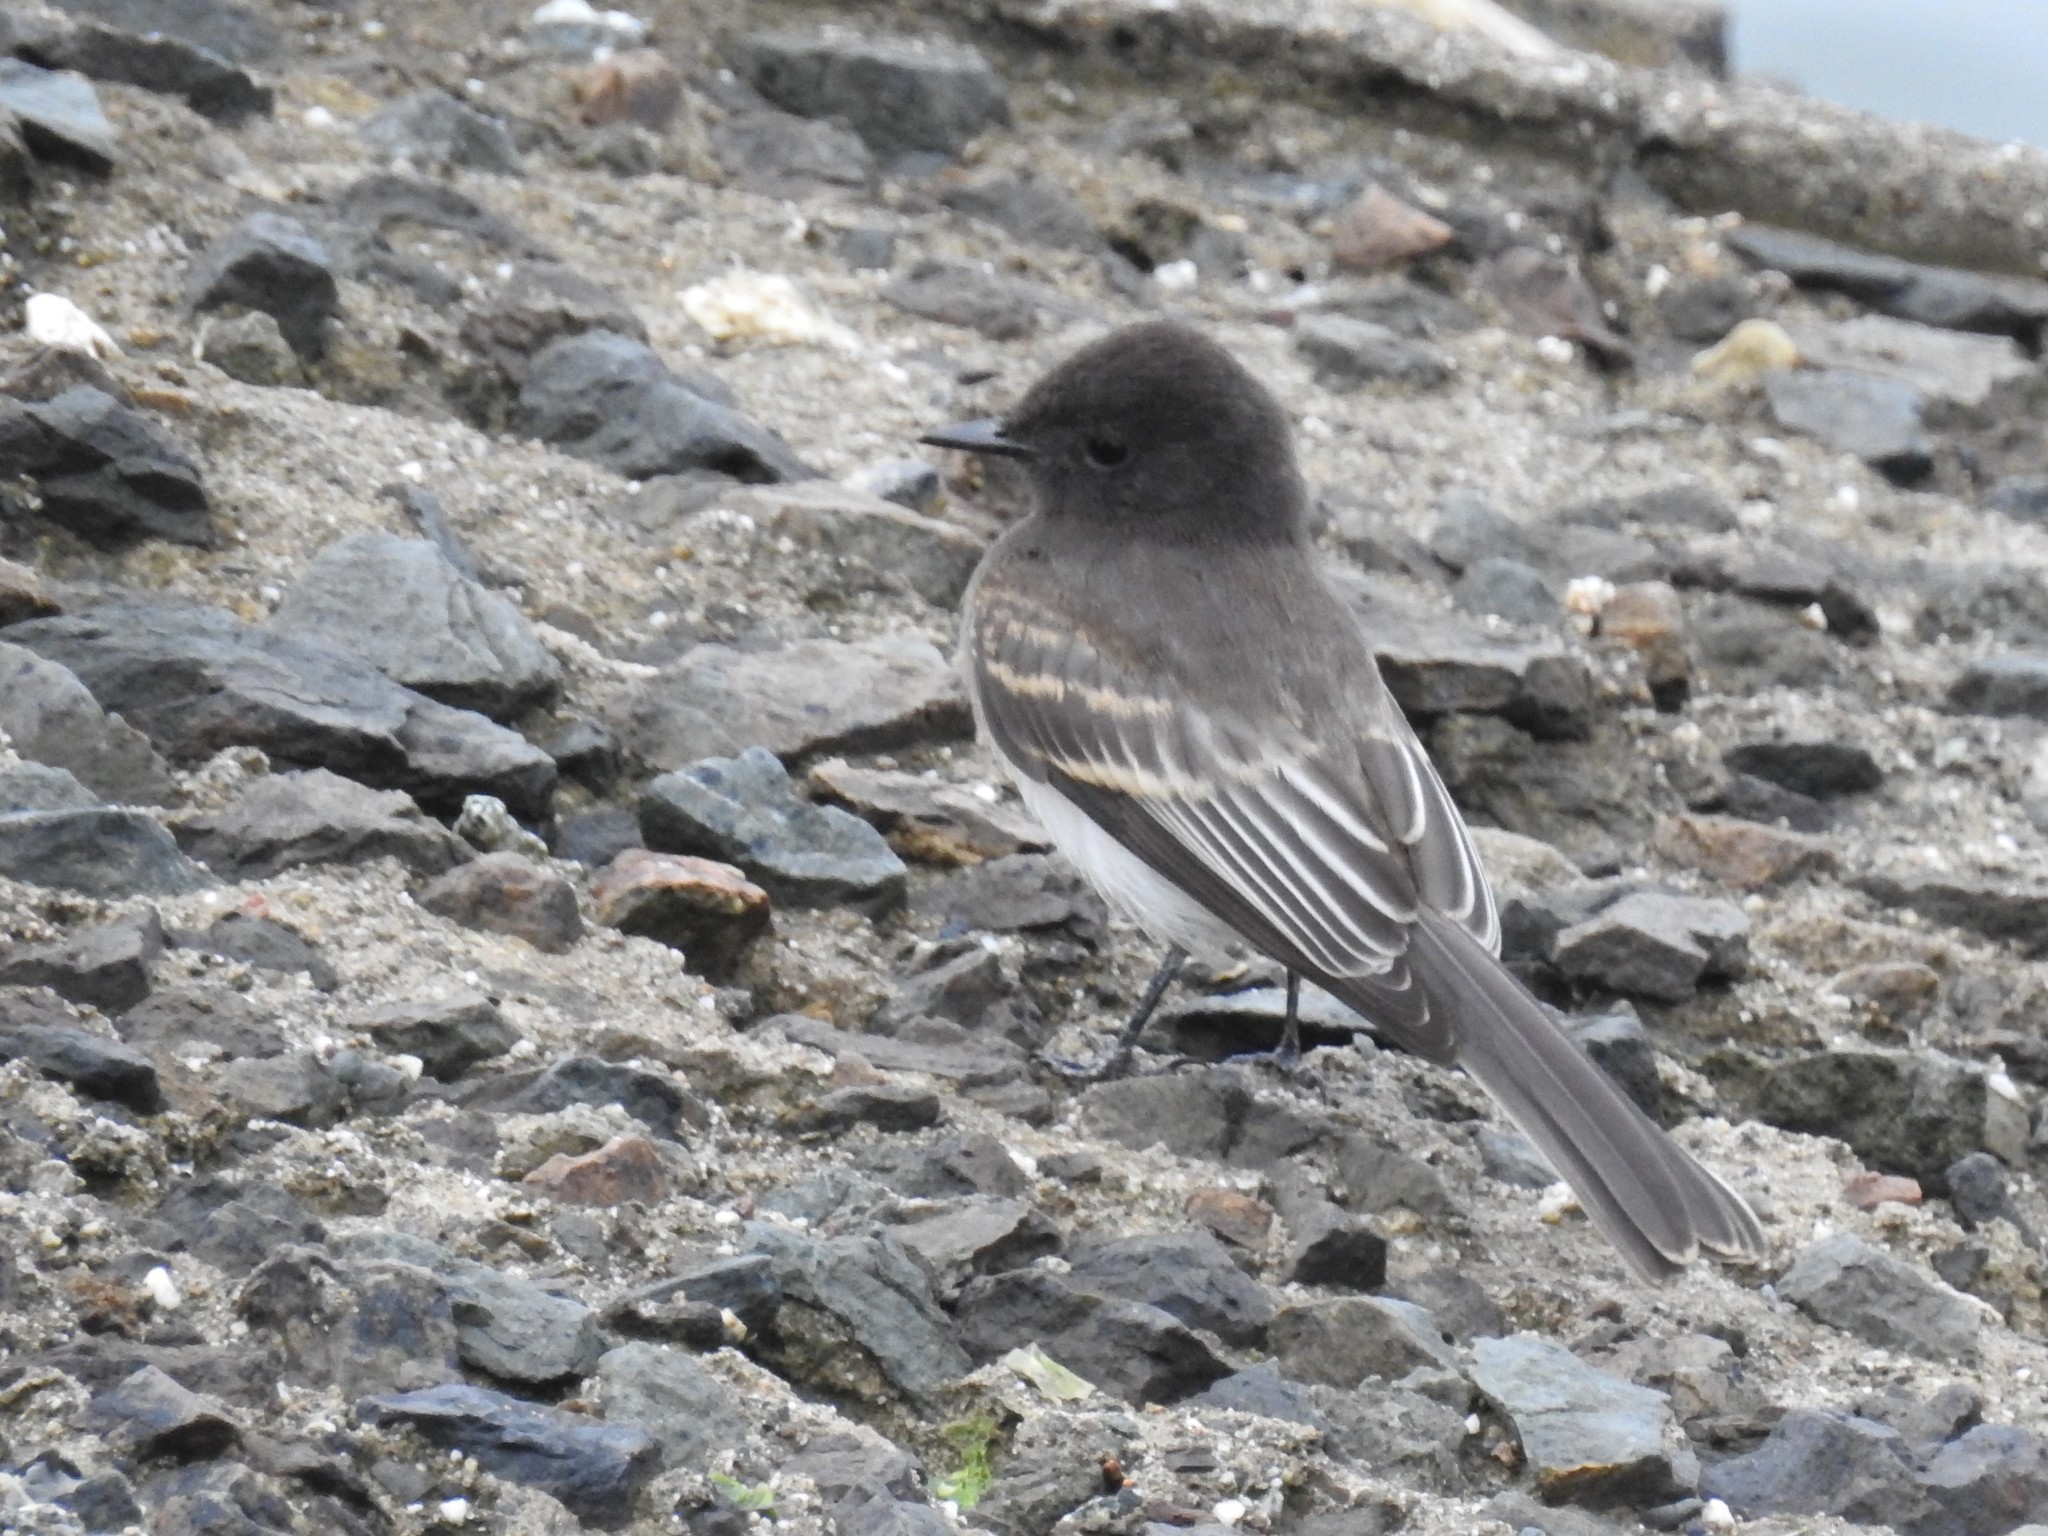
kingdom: Animalia
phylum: Chordata
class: Aves
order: Passeriformes
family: Tyrannidae
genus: Sayornis
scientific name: Sayornis nigricans
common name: Black phoebe
